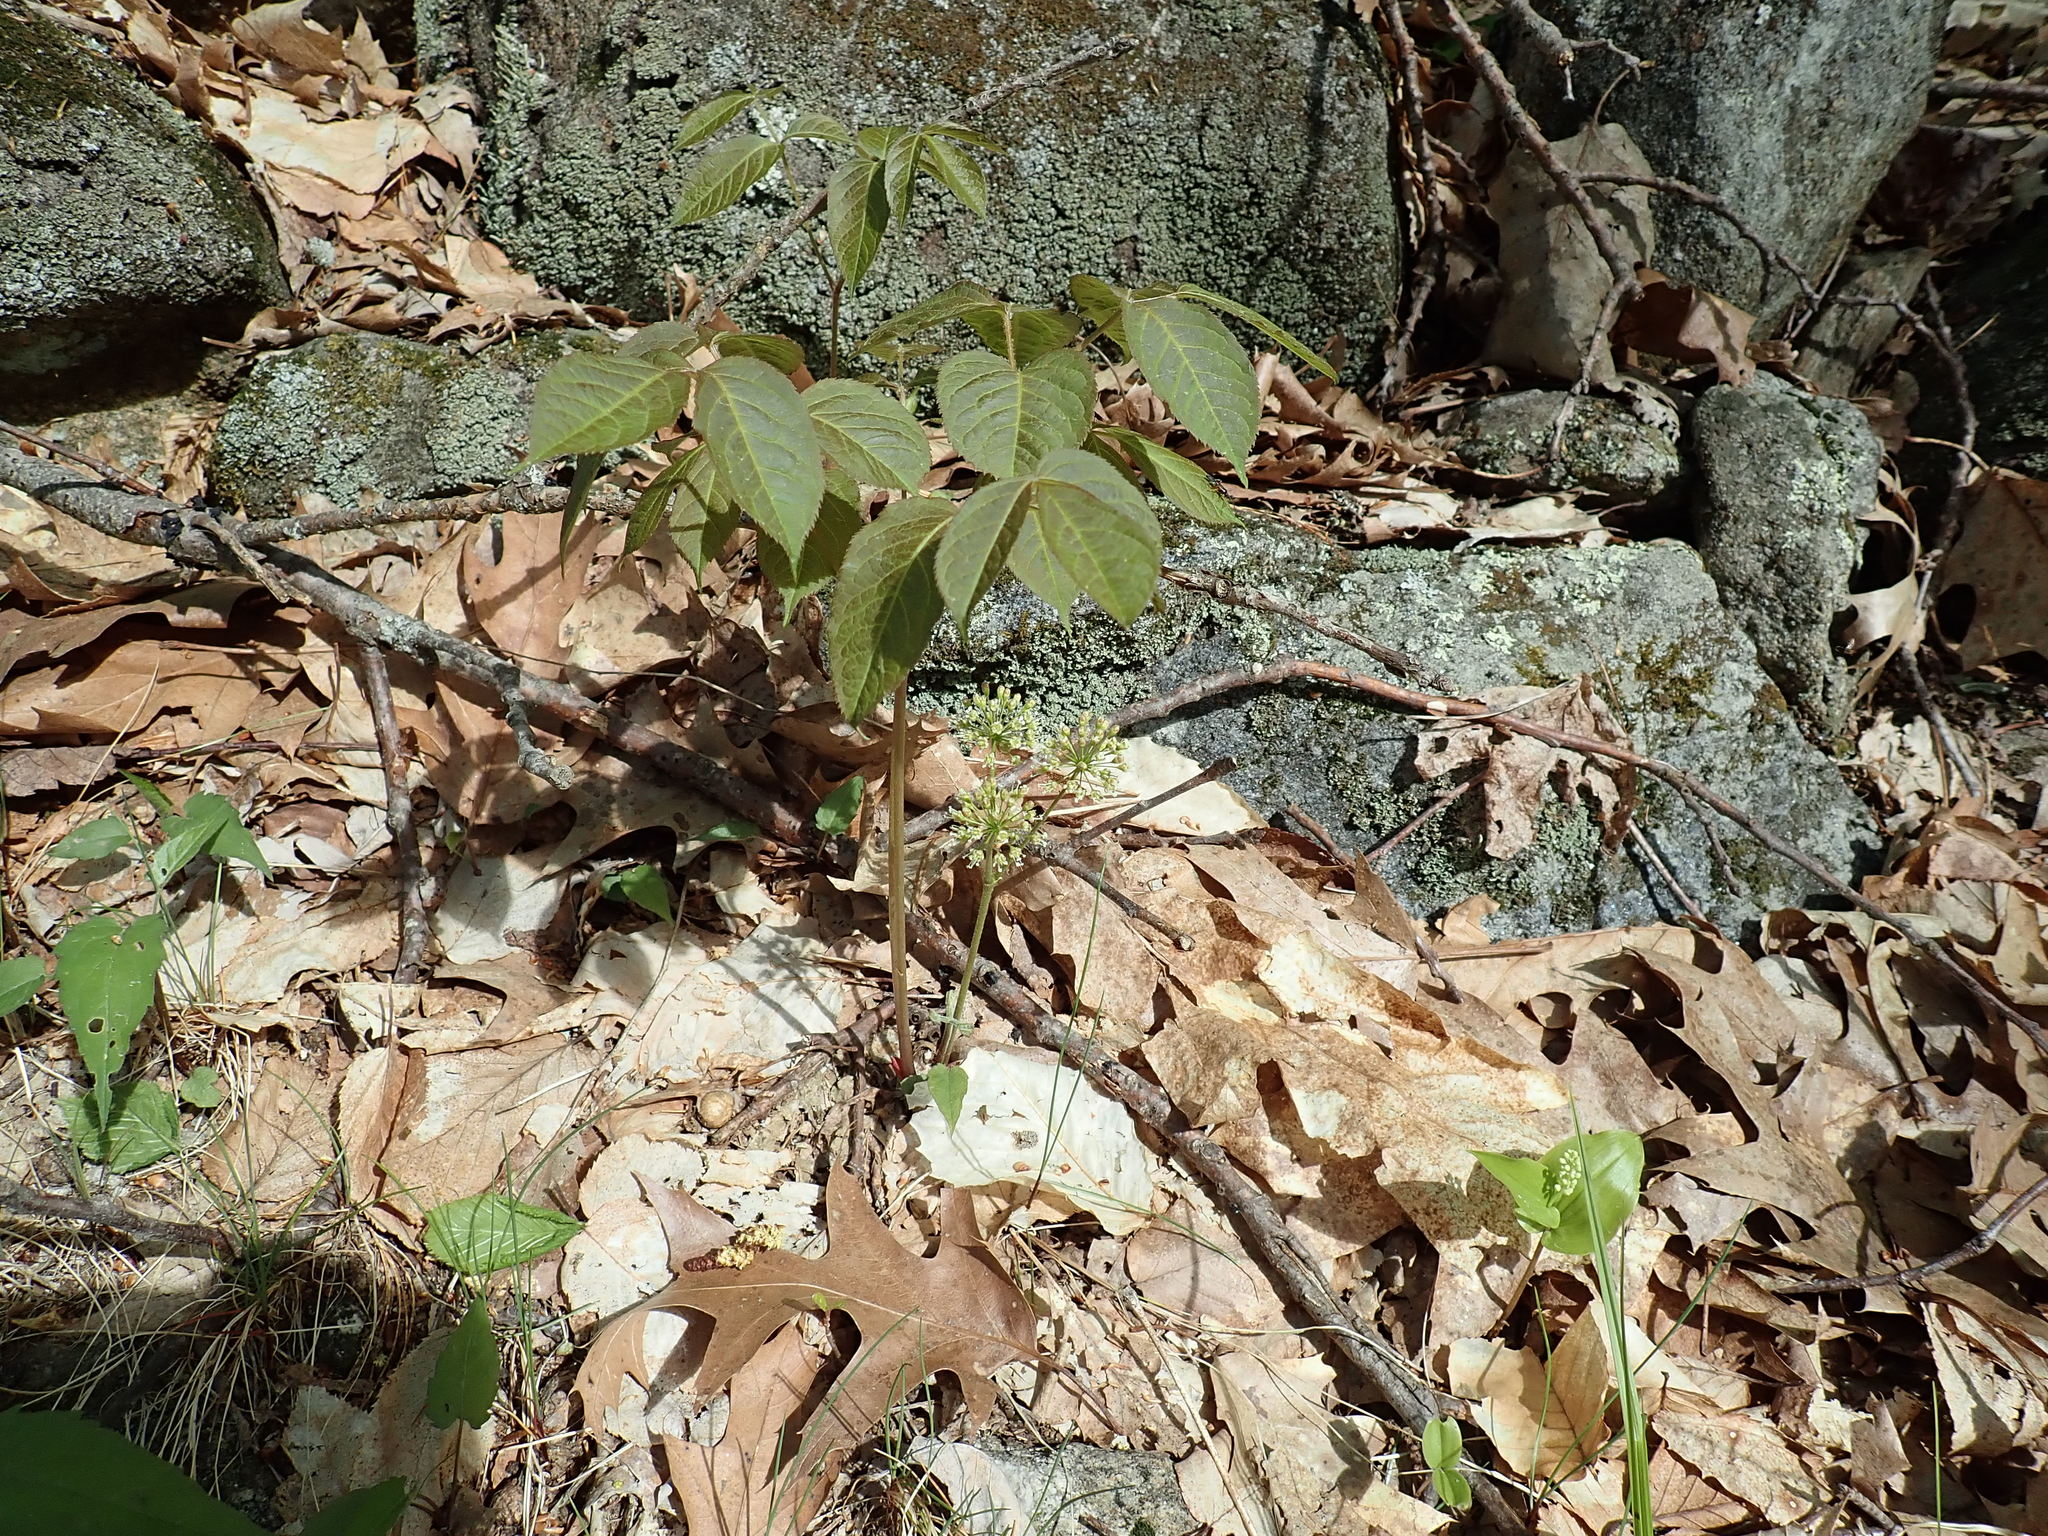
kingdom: Plantae
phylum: Tracheophyta
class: Magnoliopsida
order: Apiales
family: Araliaceae
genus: Aralia
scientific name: Aralia nudicaulis
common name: Wild sarsaparilla
